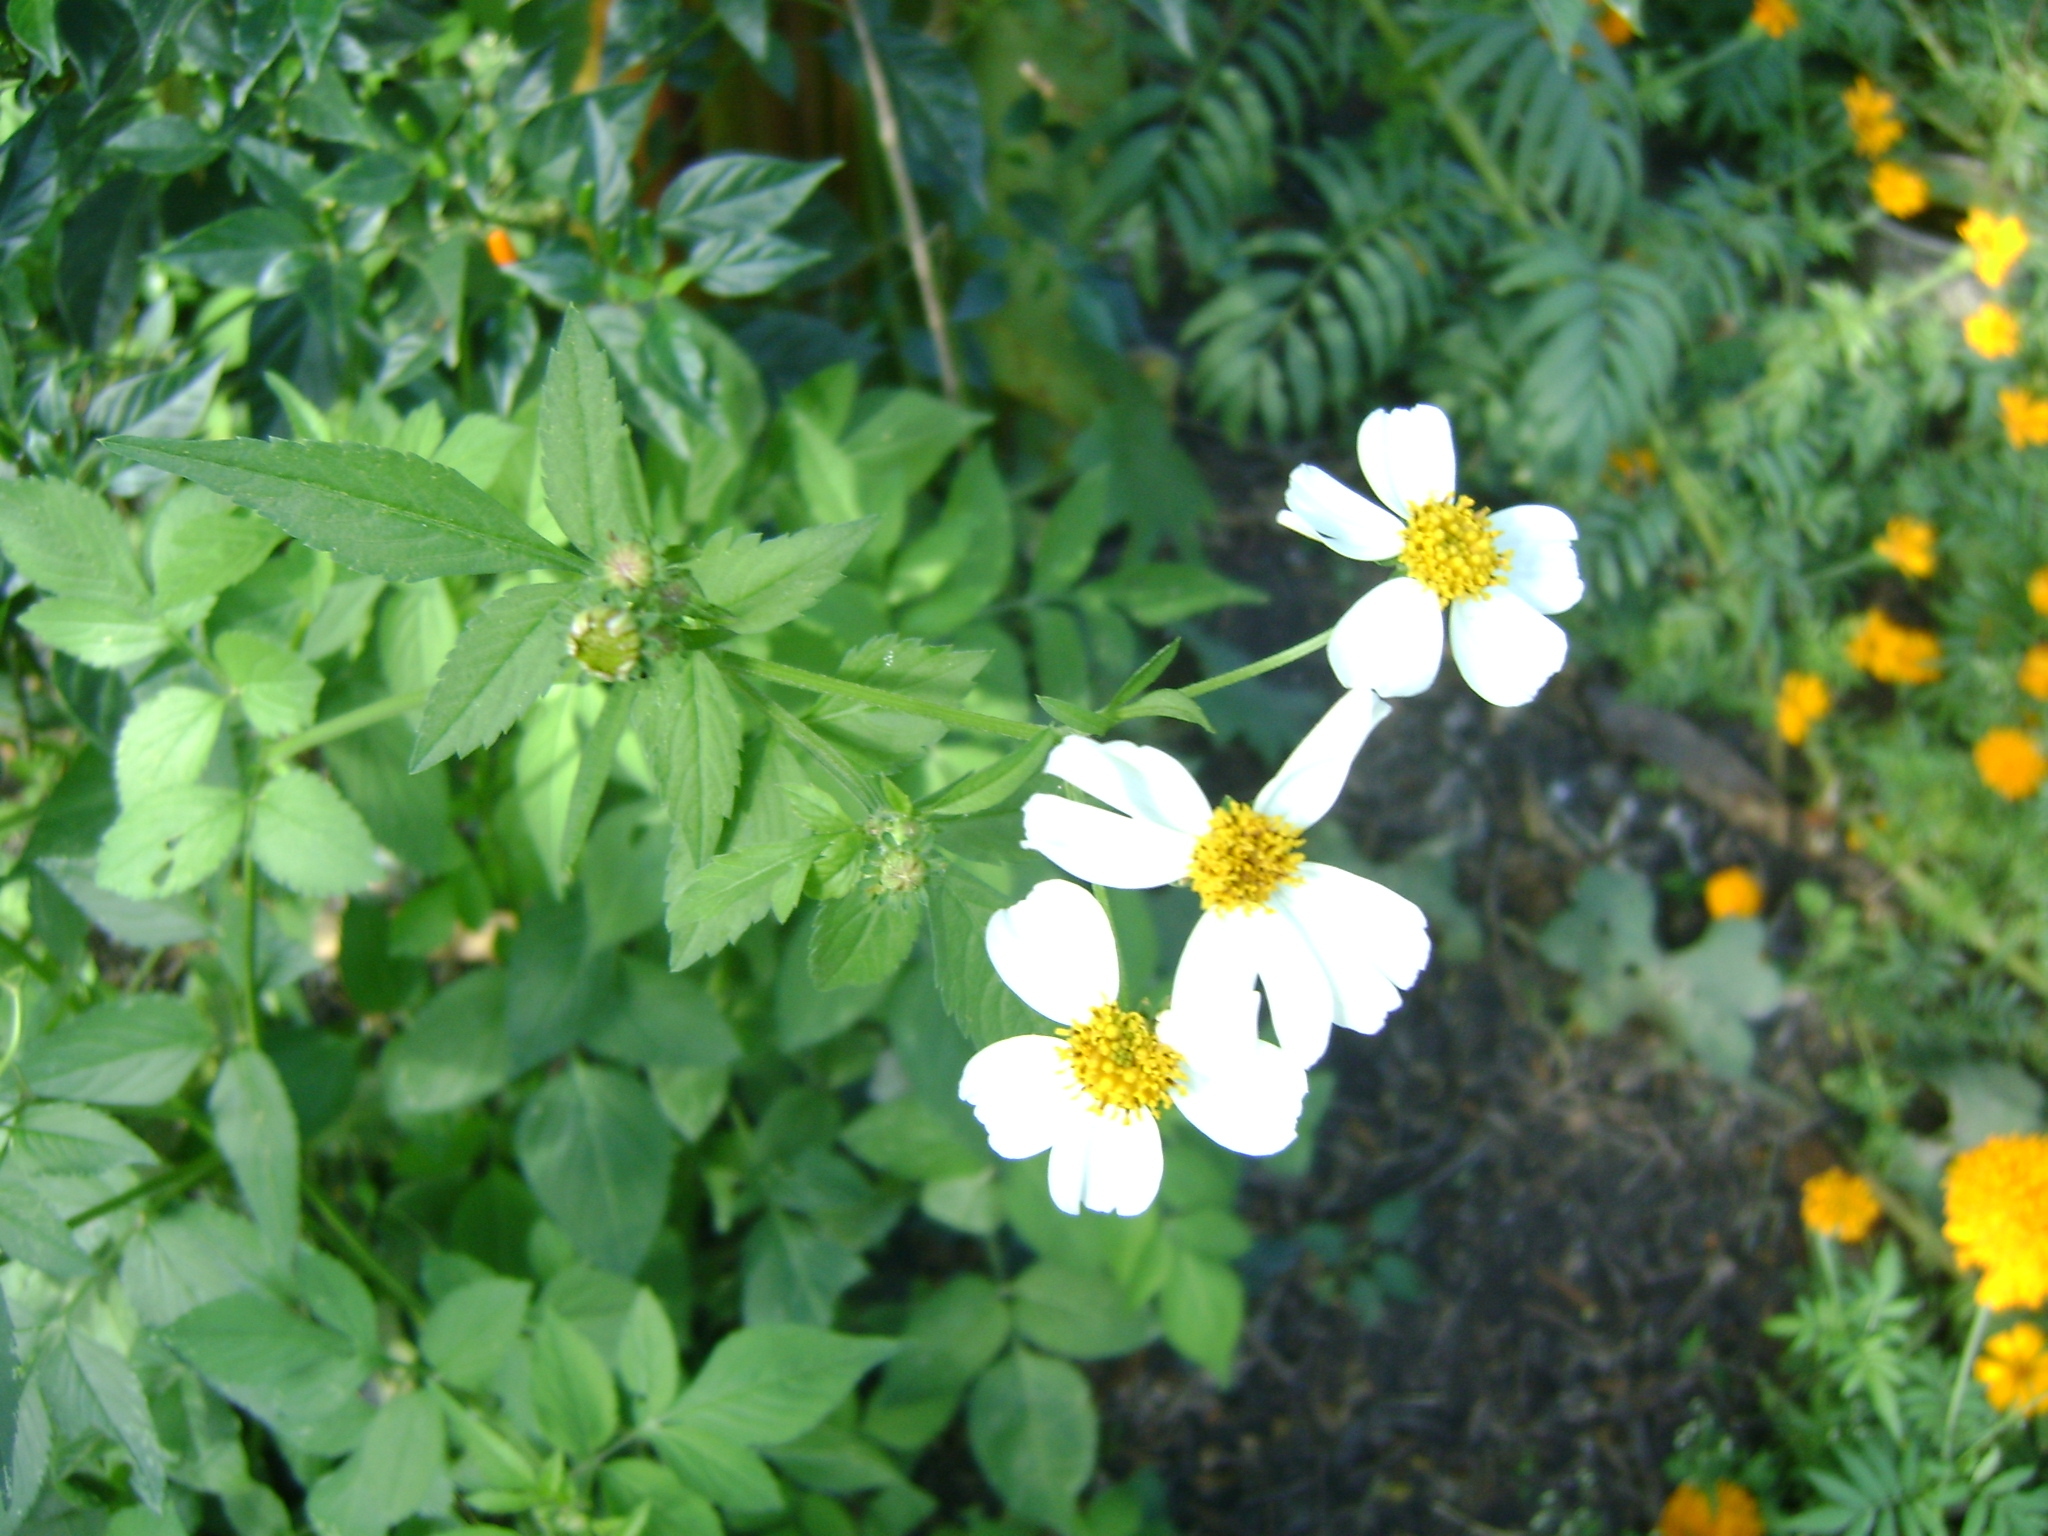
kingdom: Plantae
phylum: Tracheophyta
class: Magnoliopsida
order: Asterales
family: Asteraceae
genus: Bidens
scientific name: Bidens alba
